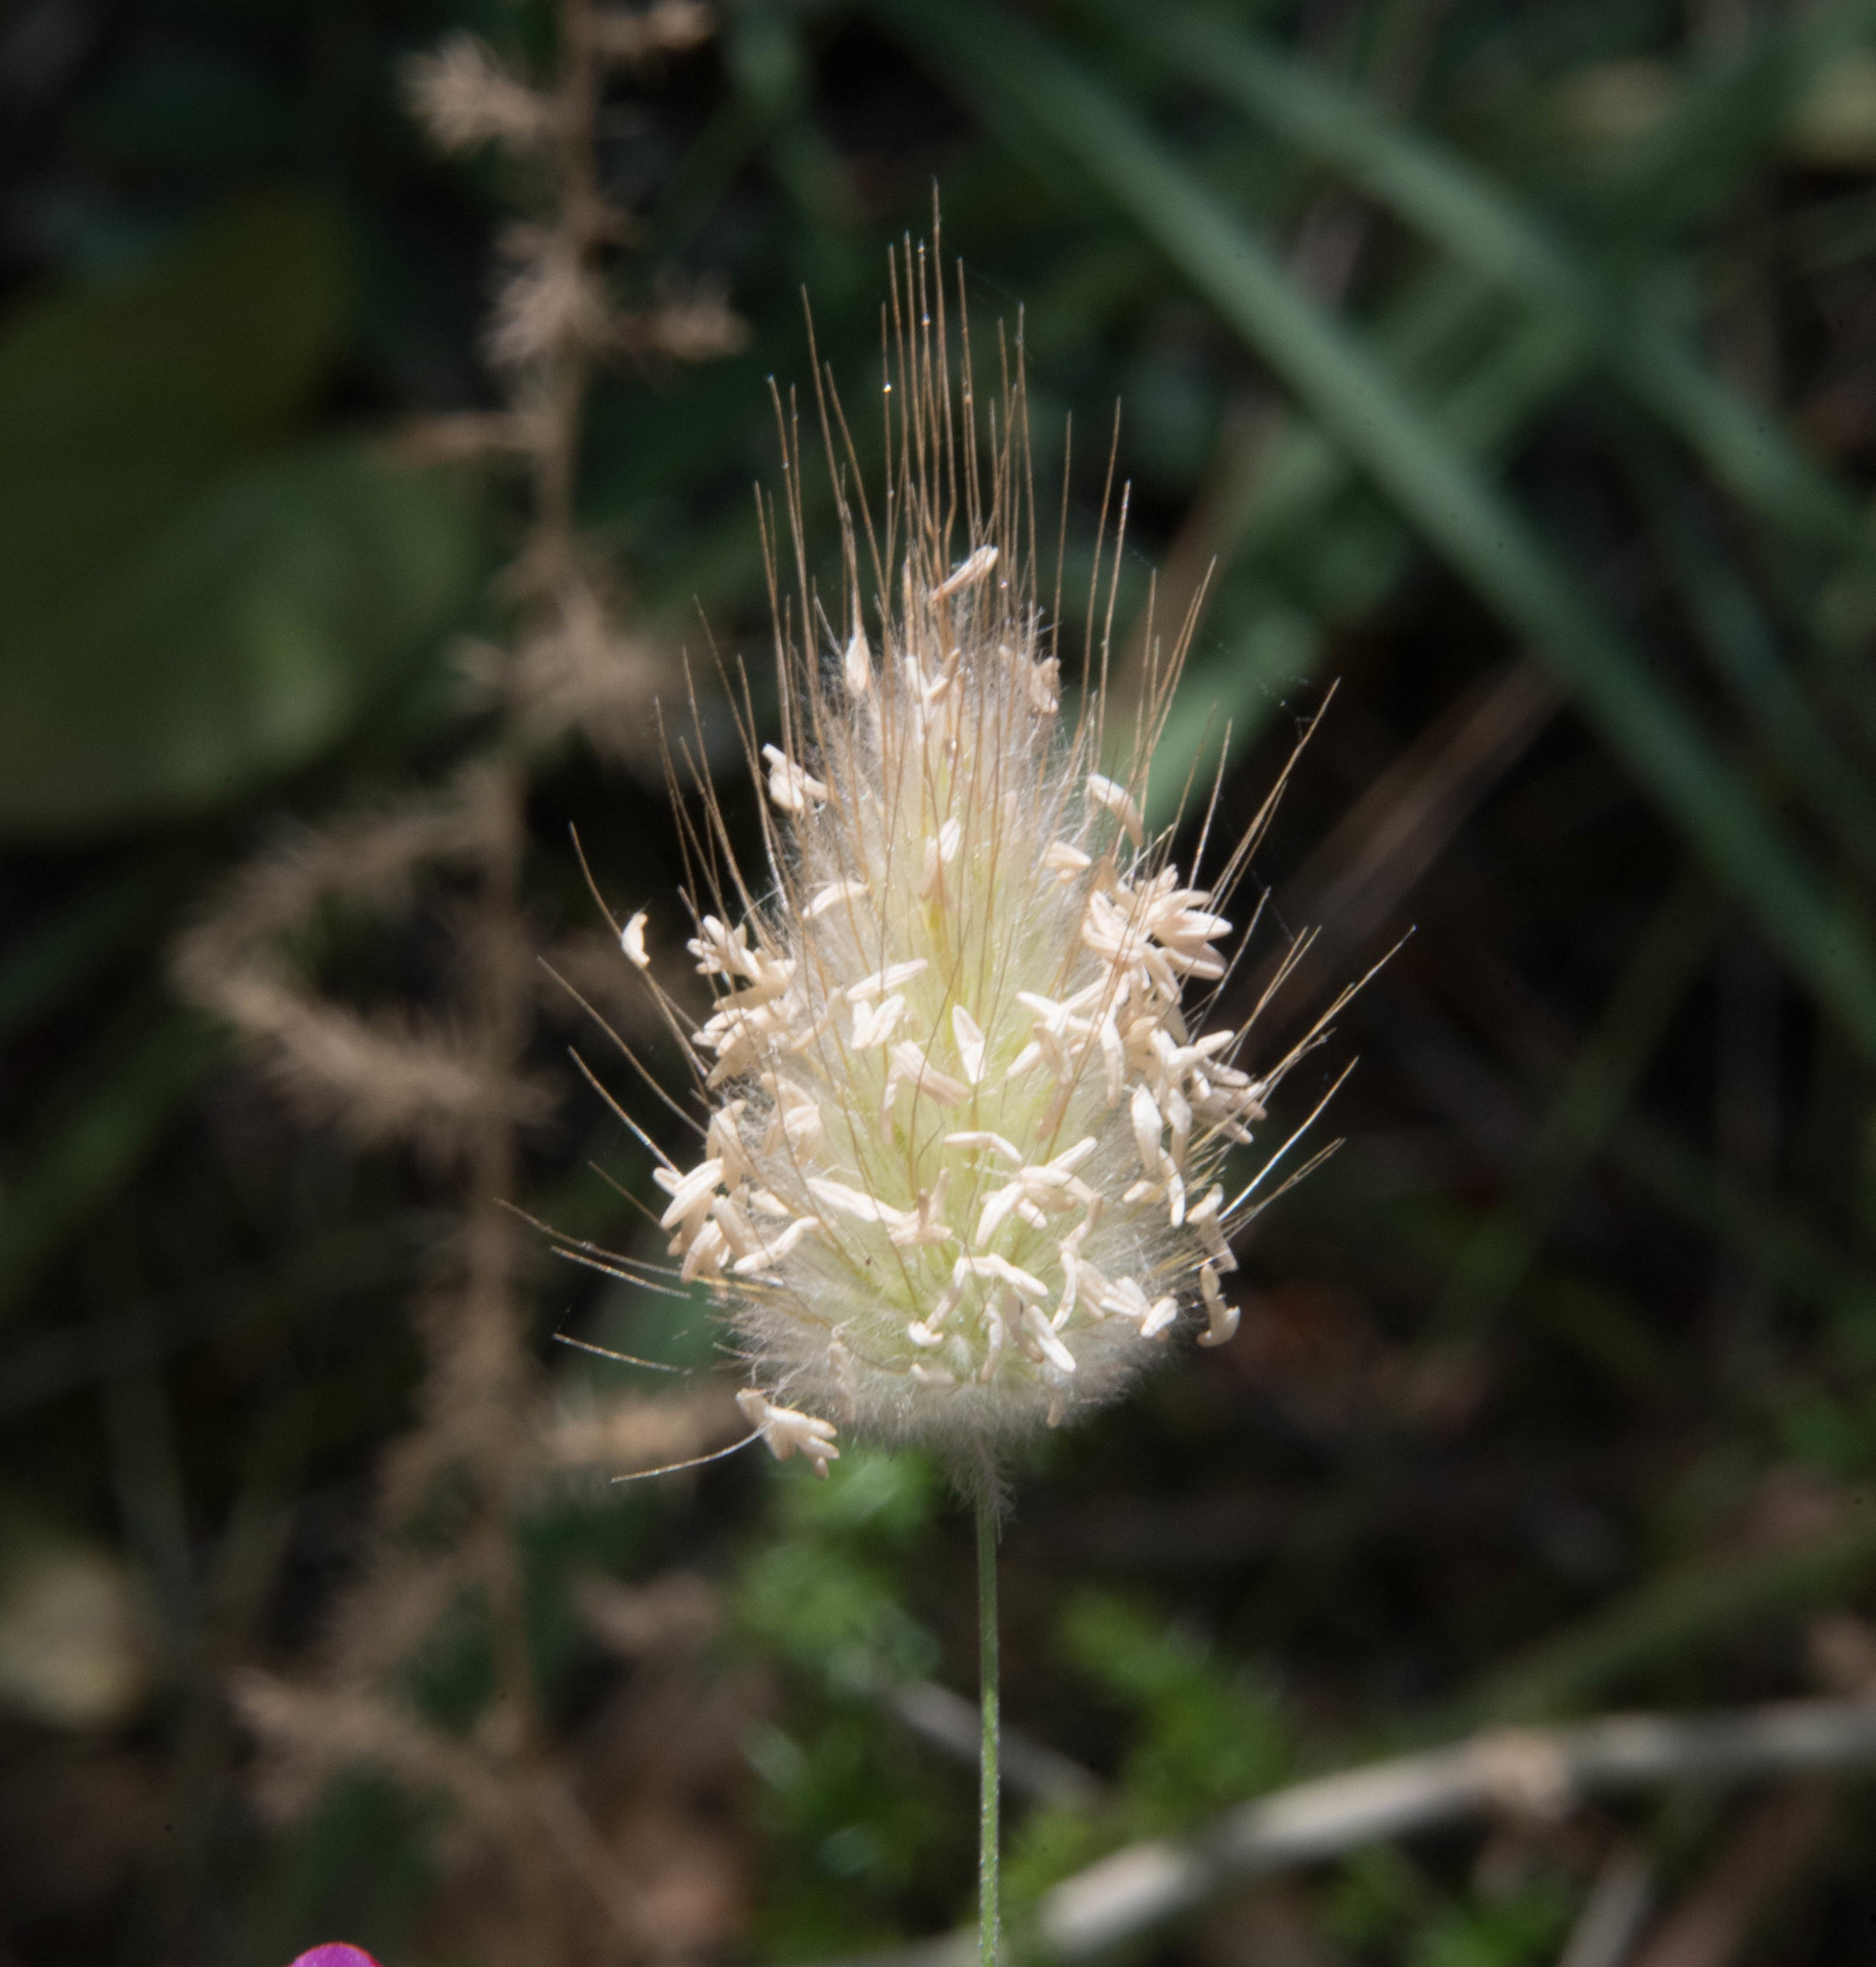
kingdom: Plantae
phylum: Tracheophyta
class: Liliopsida
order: Poales
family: Poaceae
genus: Lagurus
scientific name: Lagurus ovatus
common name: Hare's-tail
